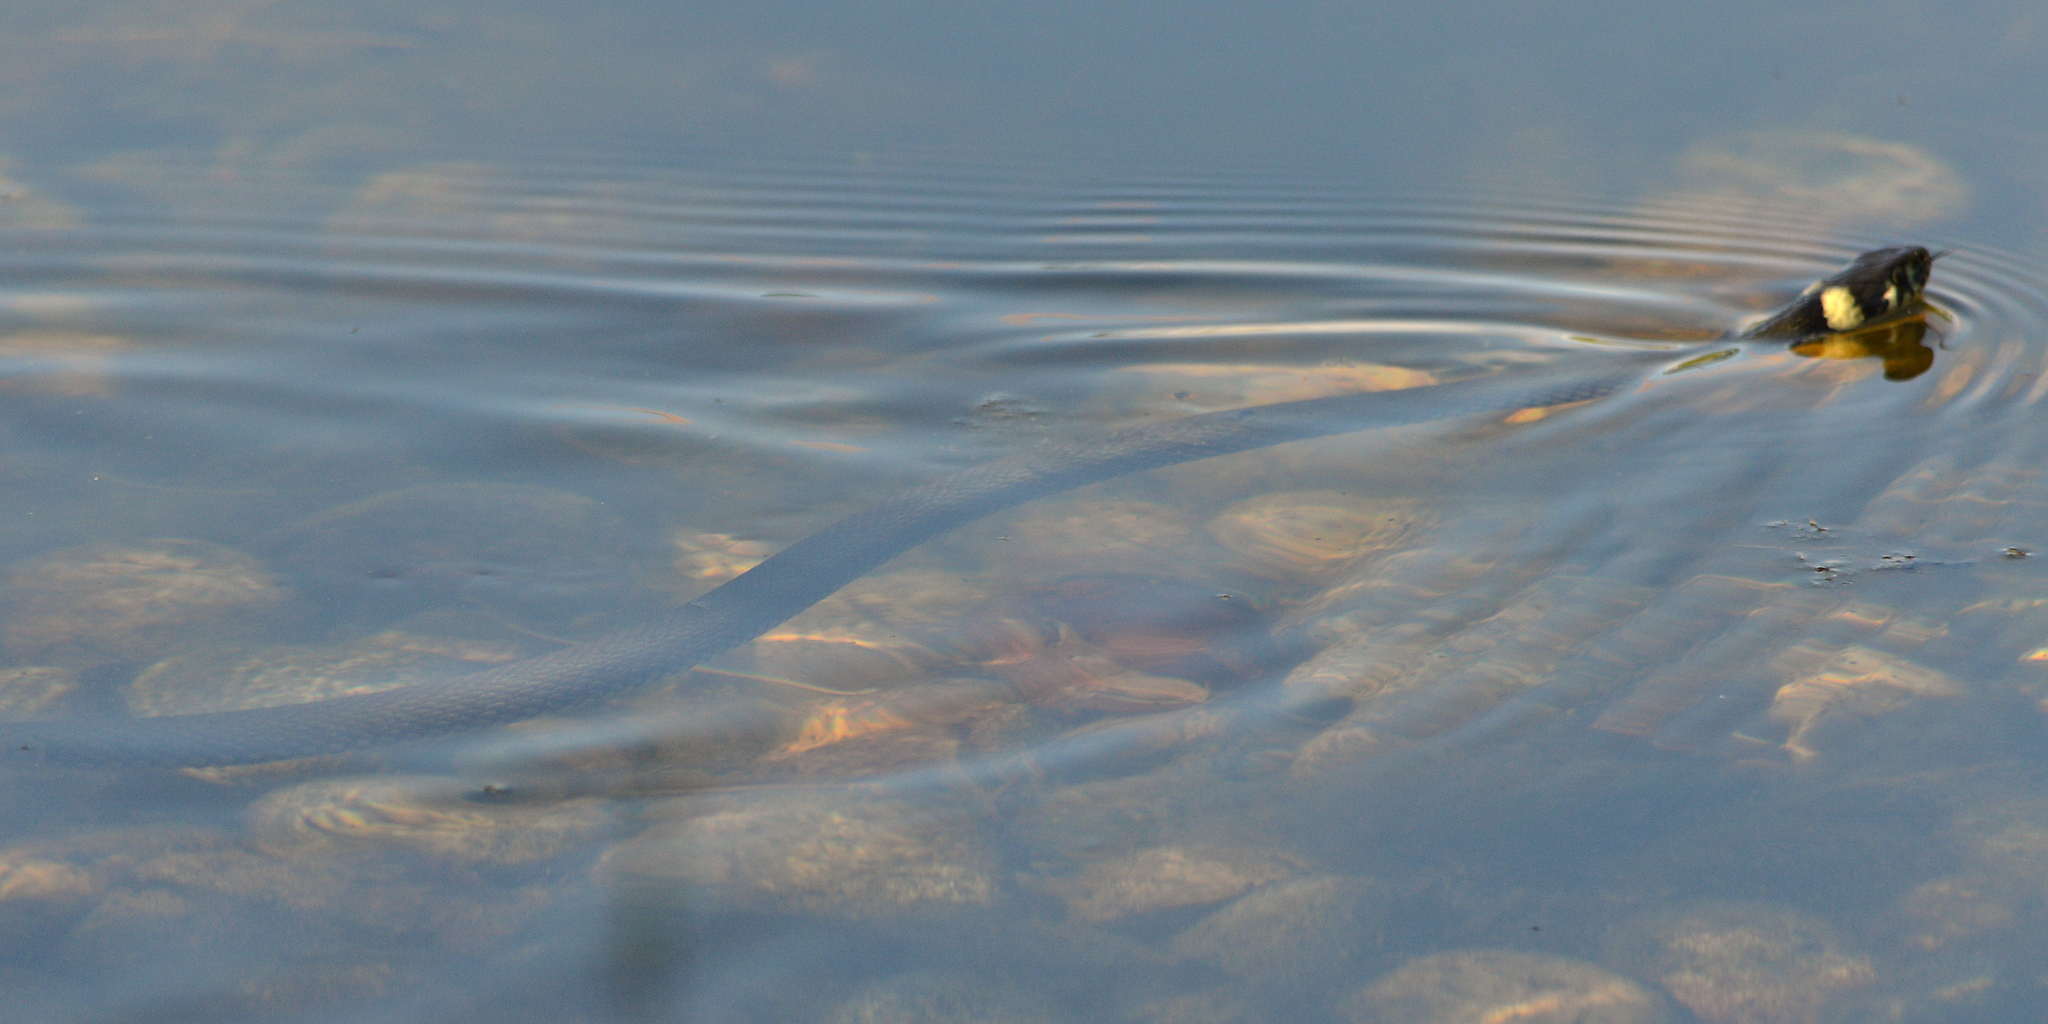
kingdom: Animalia
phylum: Chordata
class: Squamata
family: Colubridae
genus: Natrix
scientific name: Natrix natrix
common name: Grass snake
